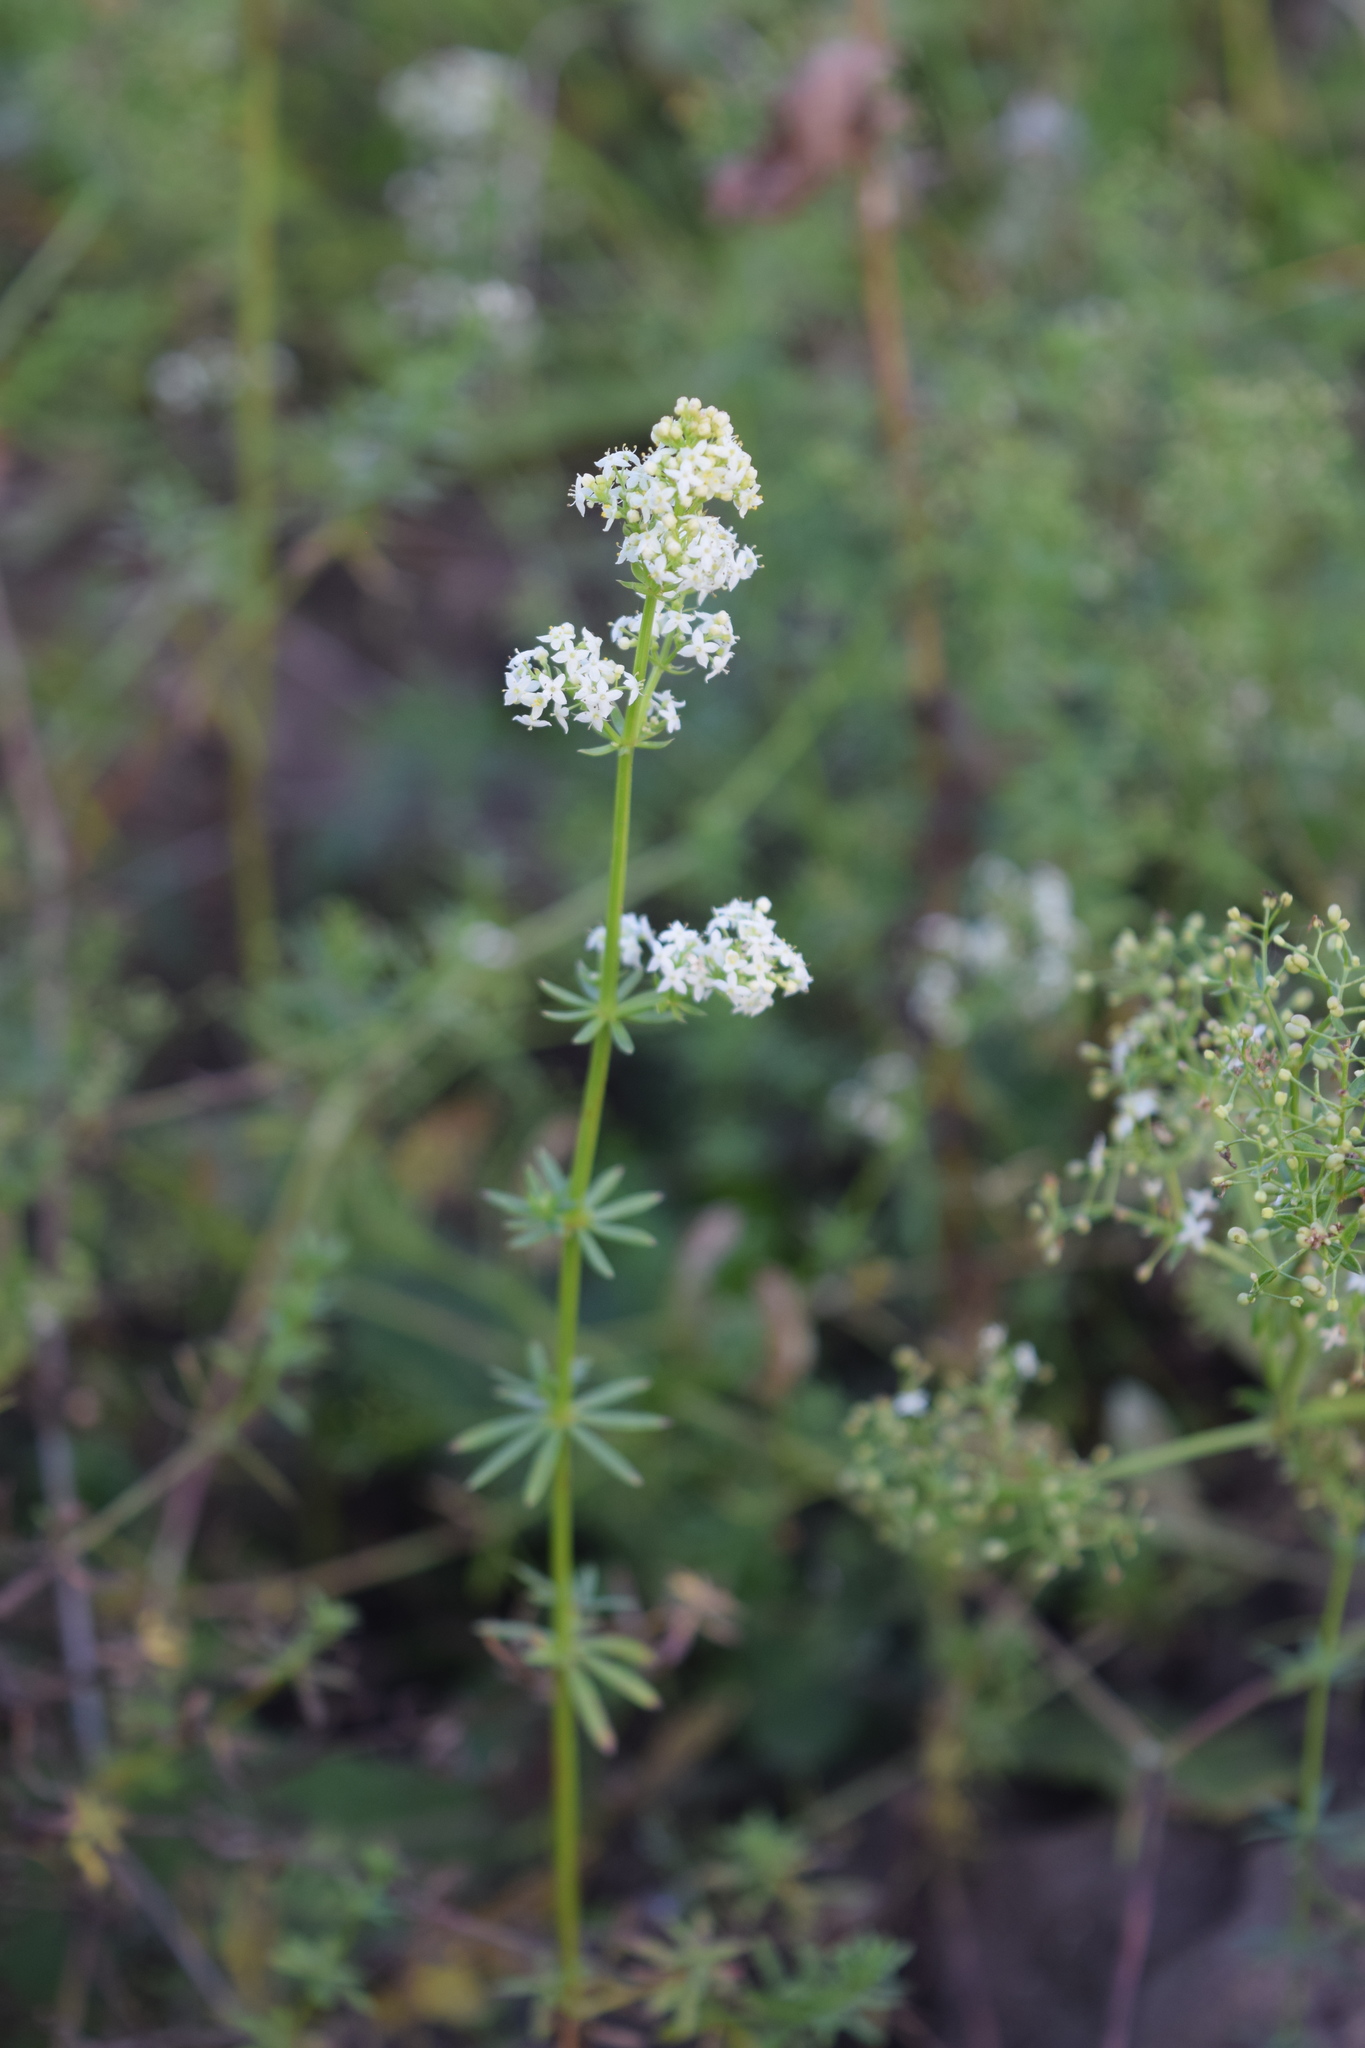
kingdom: Plantae
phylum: Tracheophyta
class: Magnoliopsida
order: Gentianales
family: Rubiaceae
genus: Galium
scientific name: Galium mollugo
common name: Hedge bedstraw
